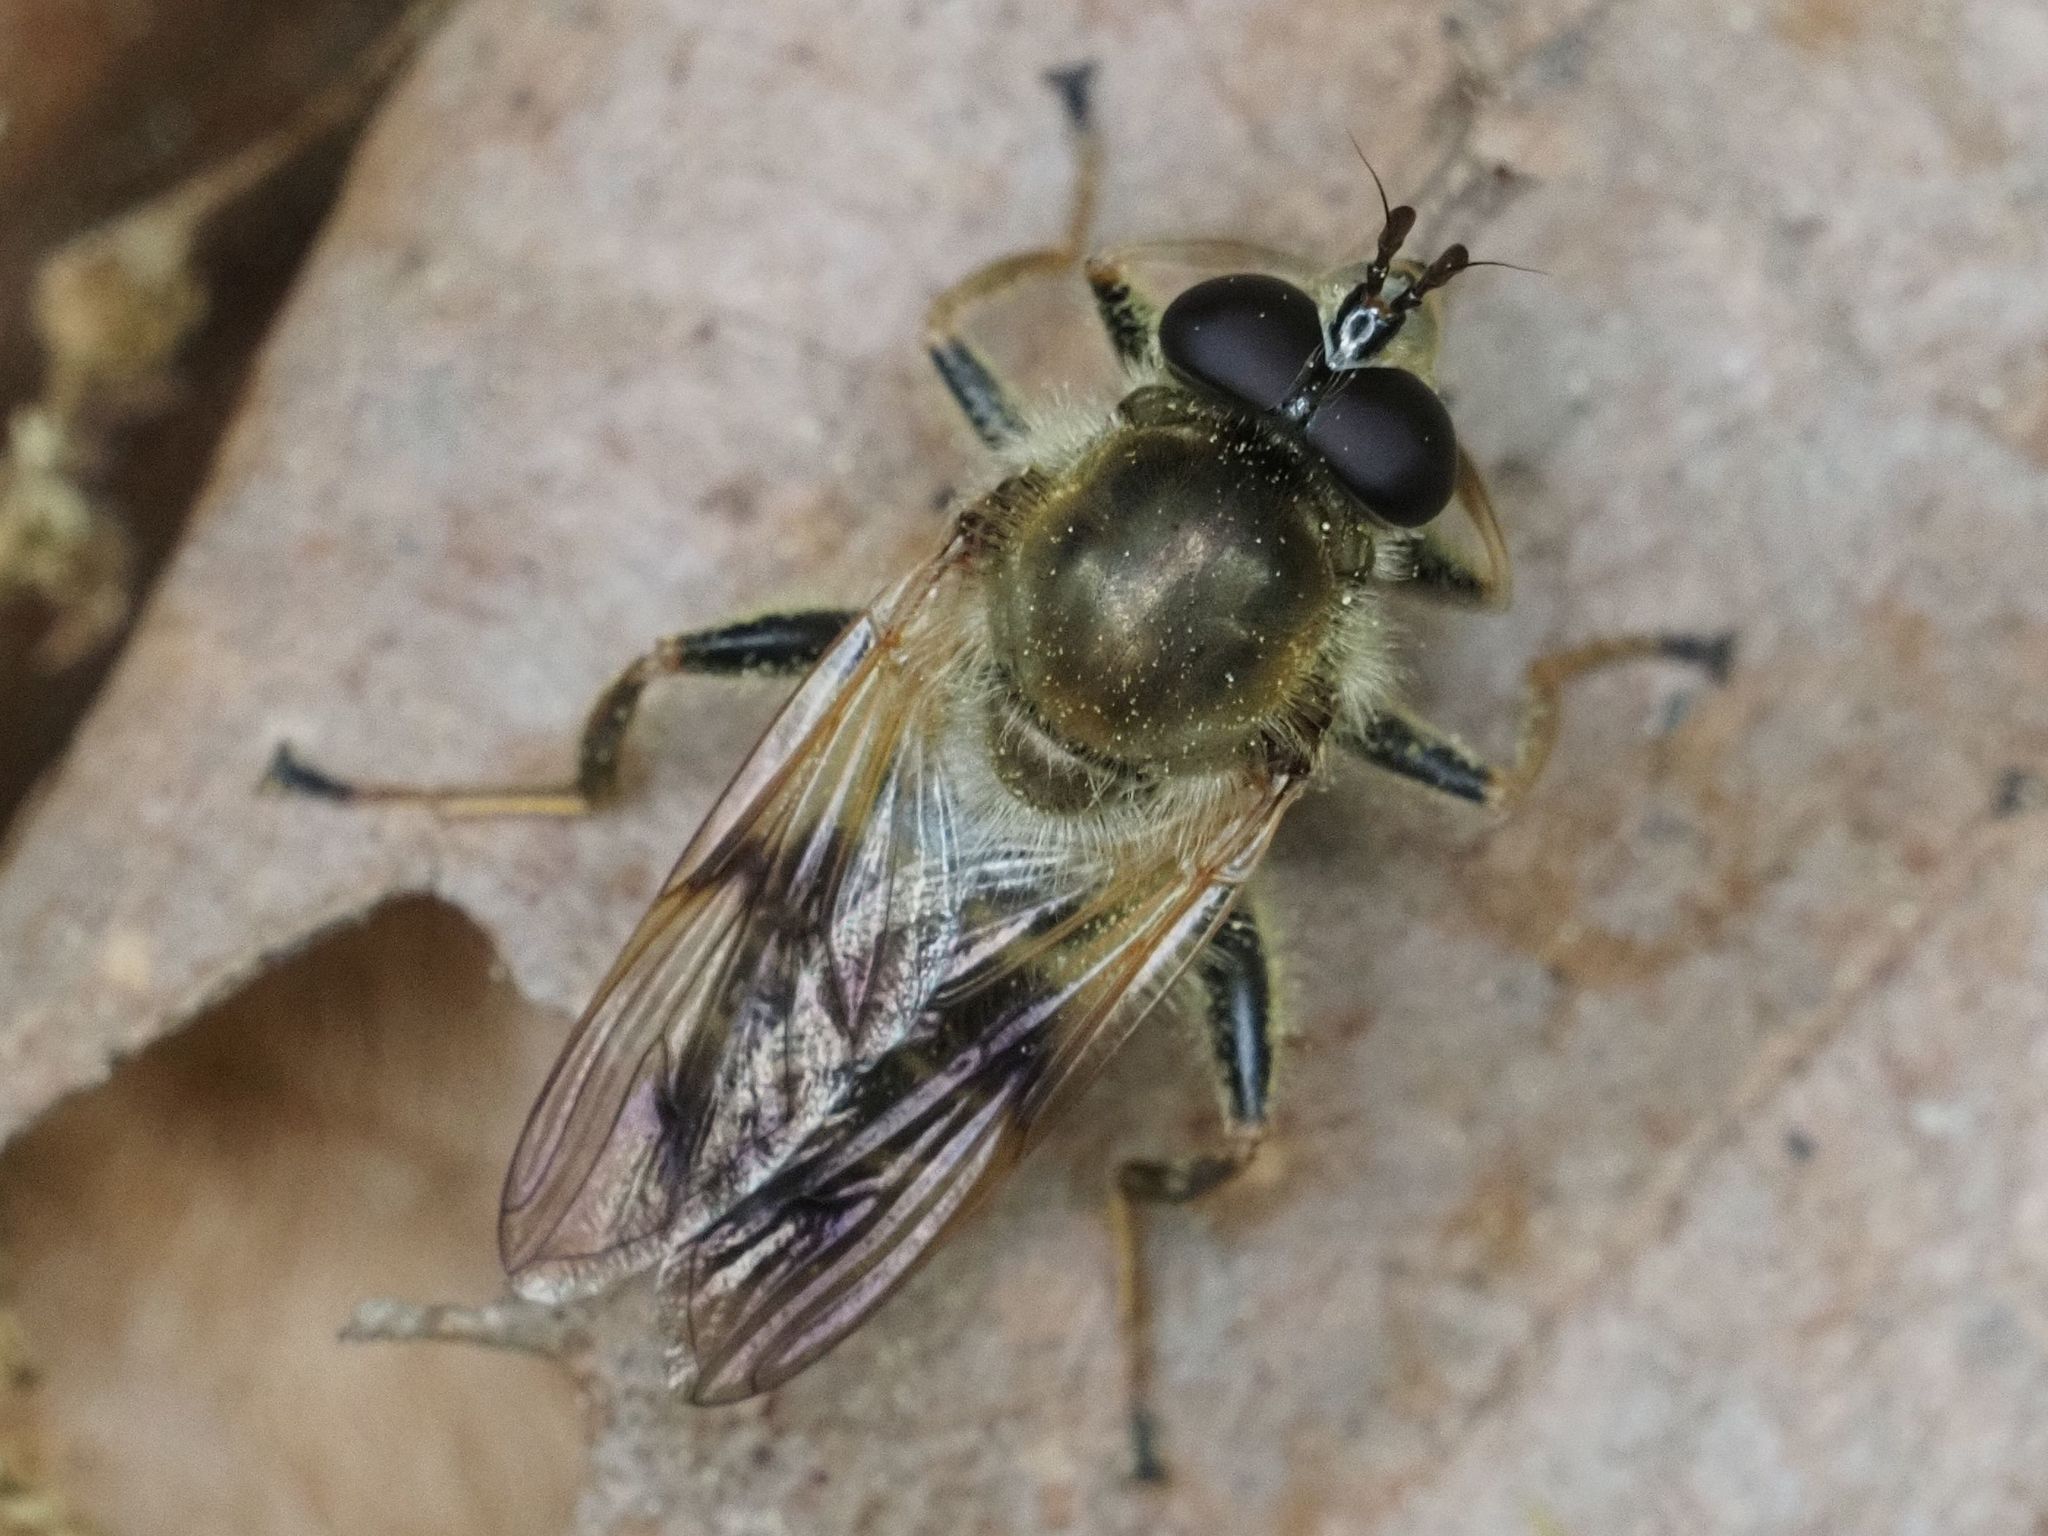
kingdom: Animalia
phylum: Arthropoda
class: Insecta
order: Diptera
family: Syrphidae
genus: Criorhina
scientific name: Criorhina asilica
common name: Pale-banded bear hoverfly
